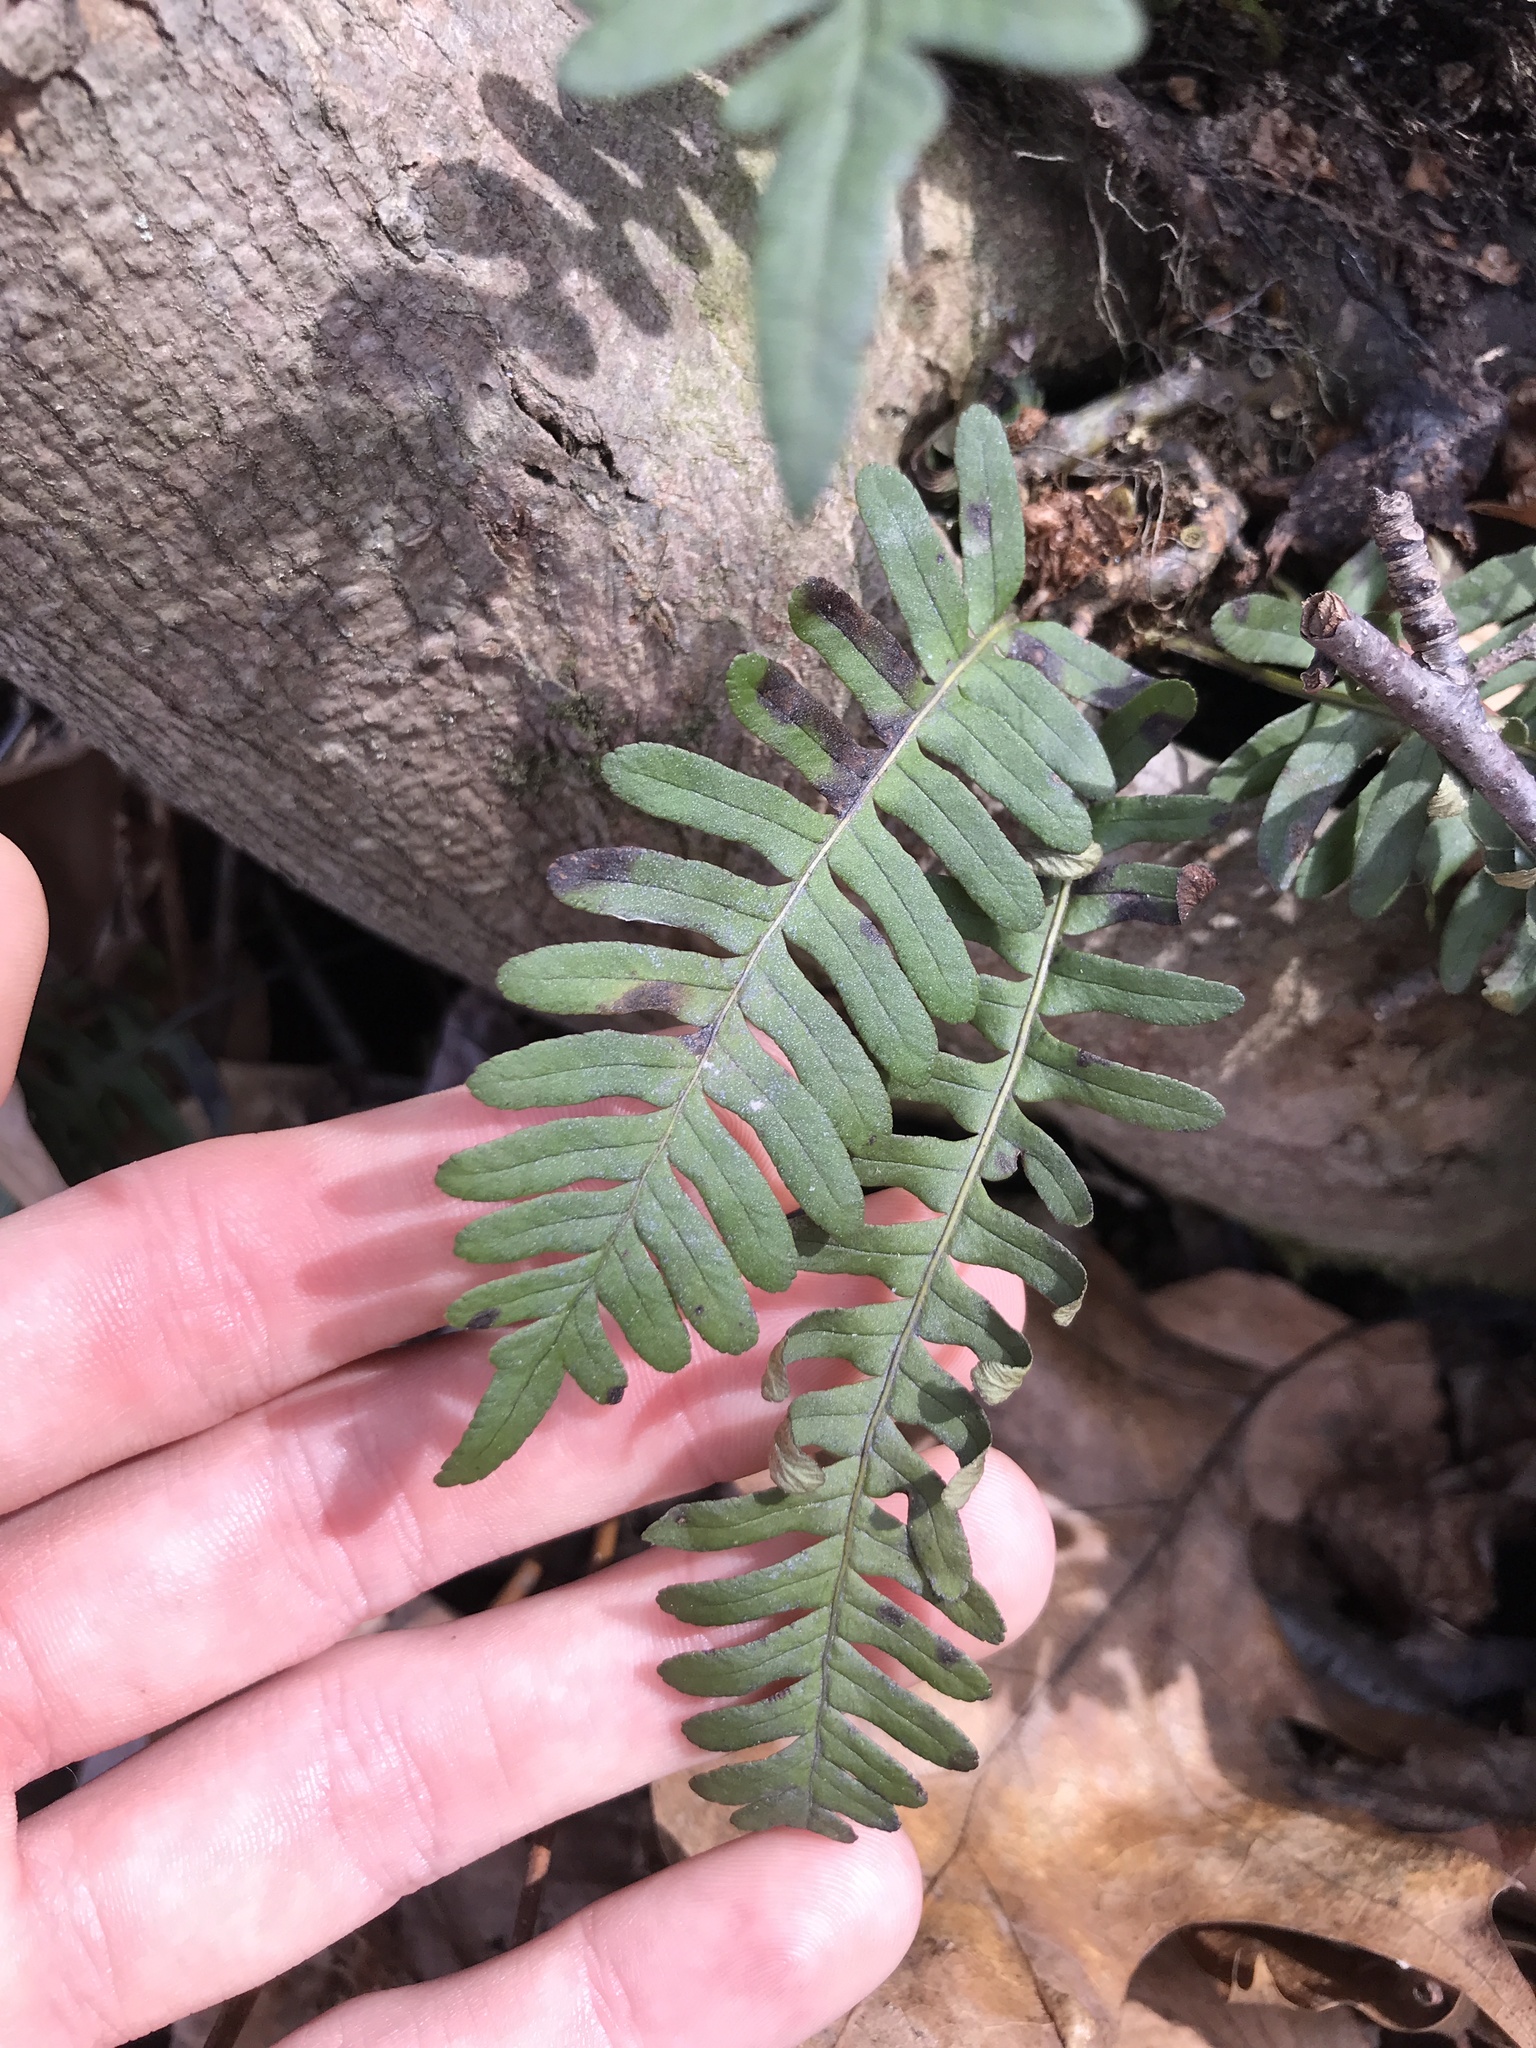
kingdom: Plantae
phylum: Tracheophyta
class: Polypodiopsida
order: Polypodiales
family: Polypodiaceae
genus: Polypodium
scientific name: Polypodium virginianum
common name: American wall fern
